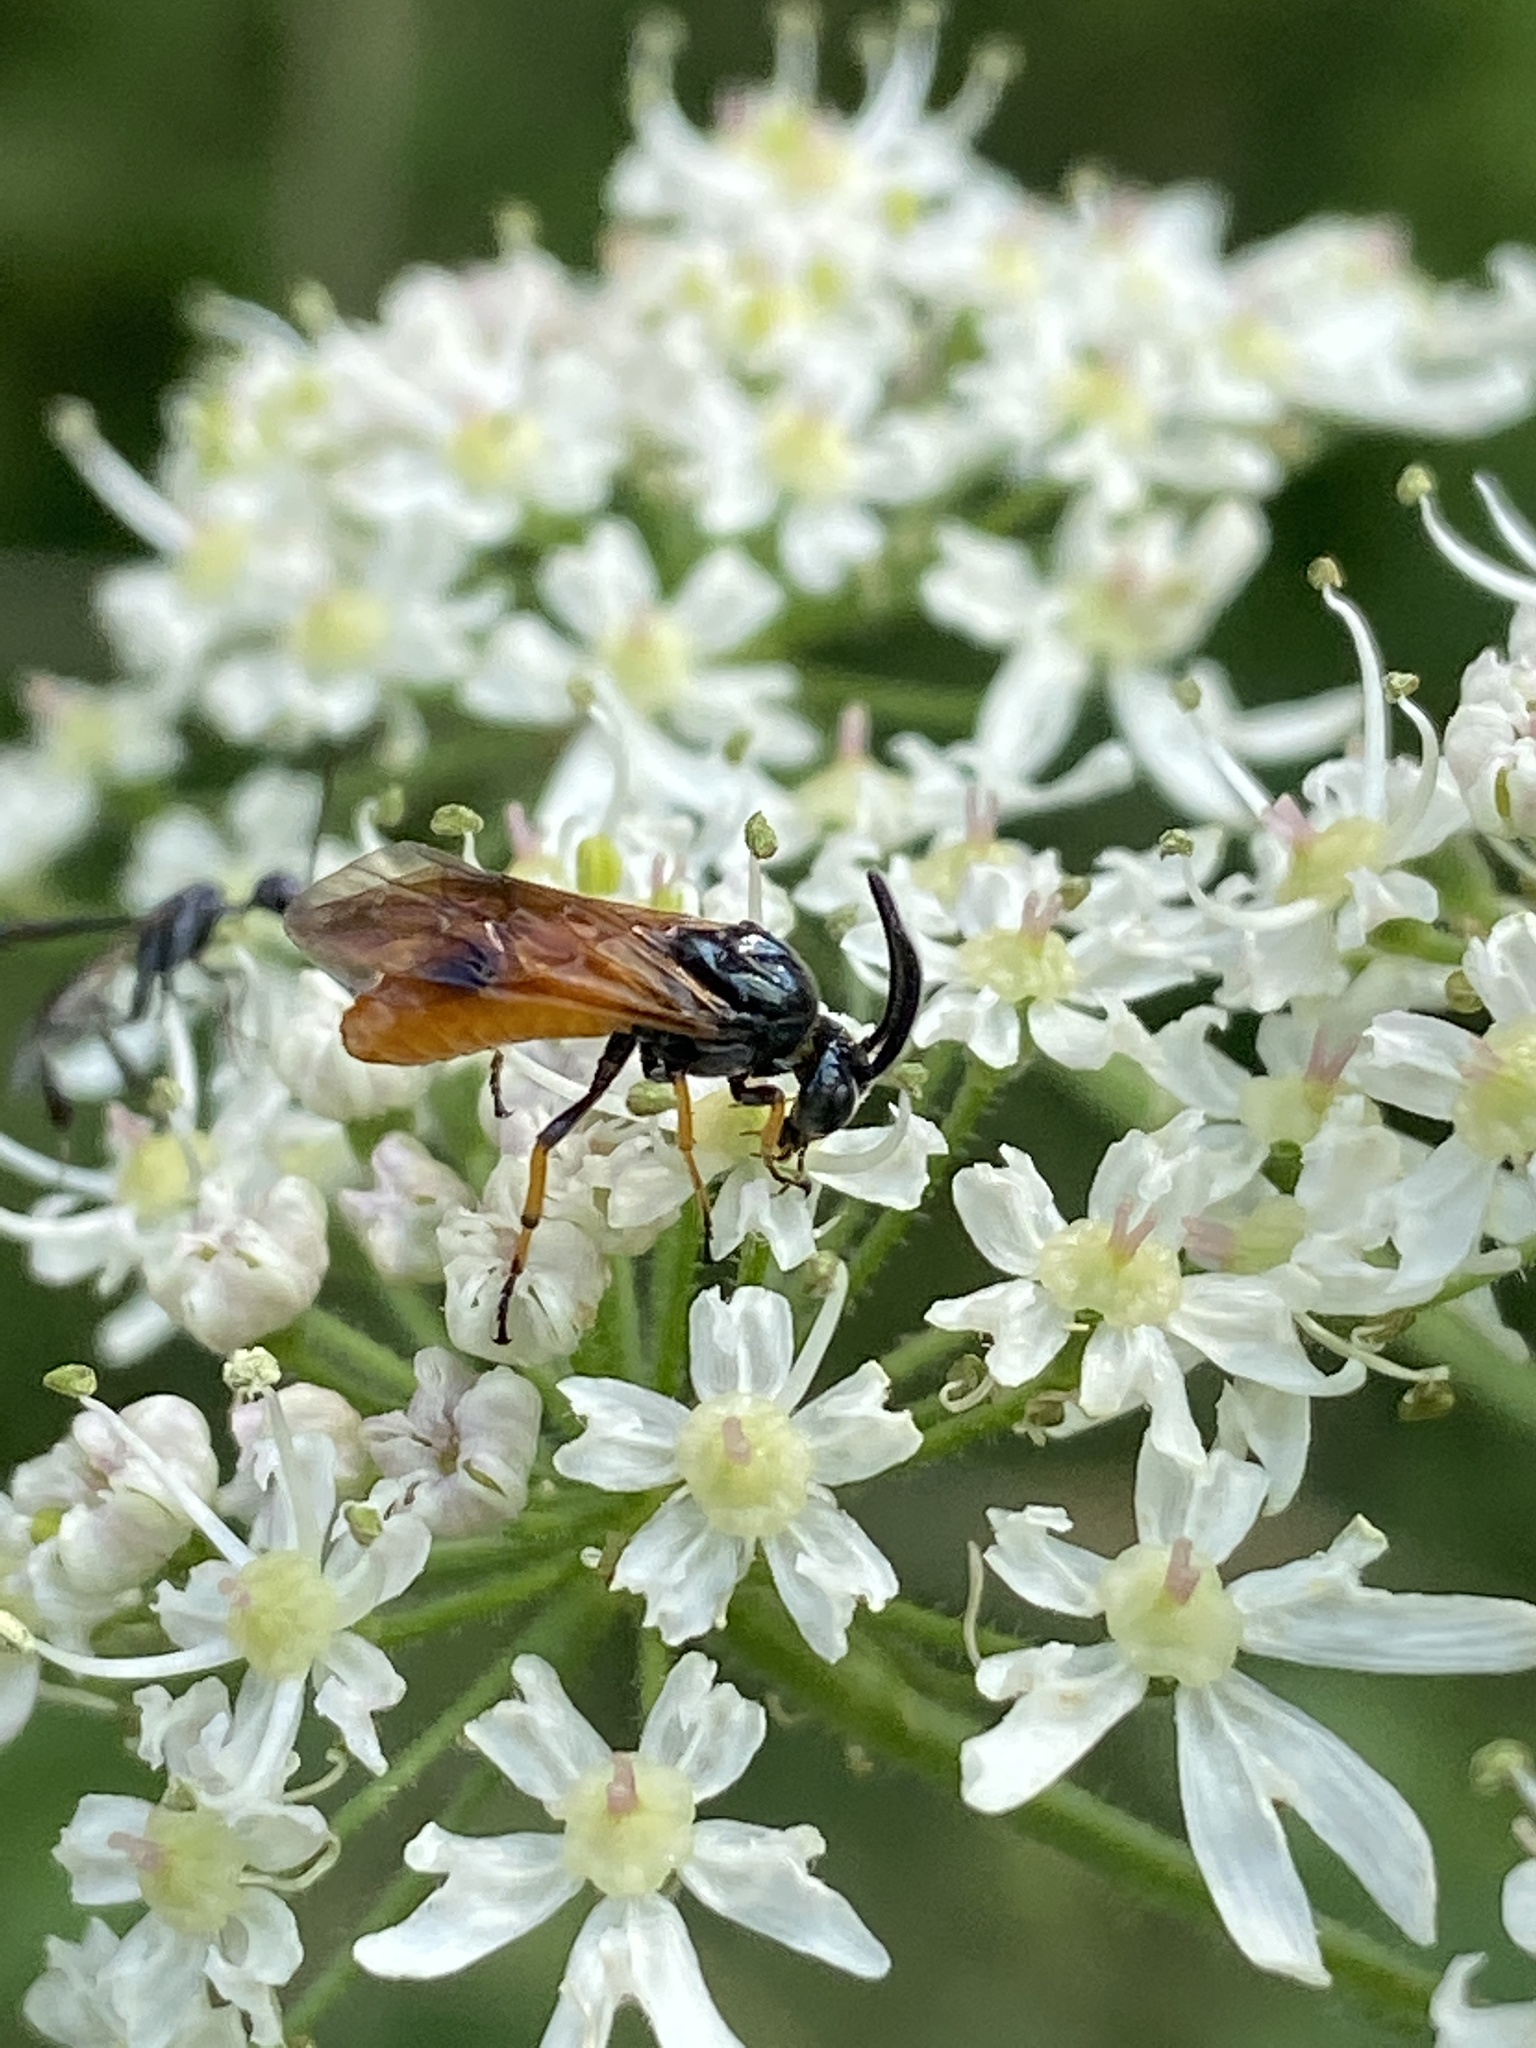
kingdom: Animalia
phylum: Arthropoda
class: Insecta
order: Hymenoptera
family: Argidae
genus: Arge
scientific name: Arge melanochra
